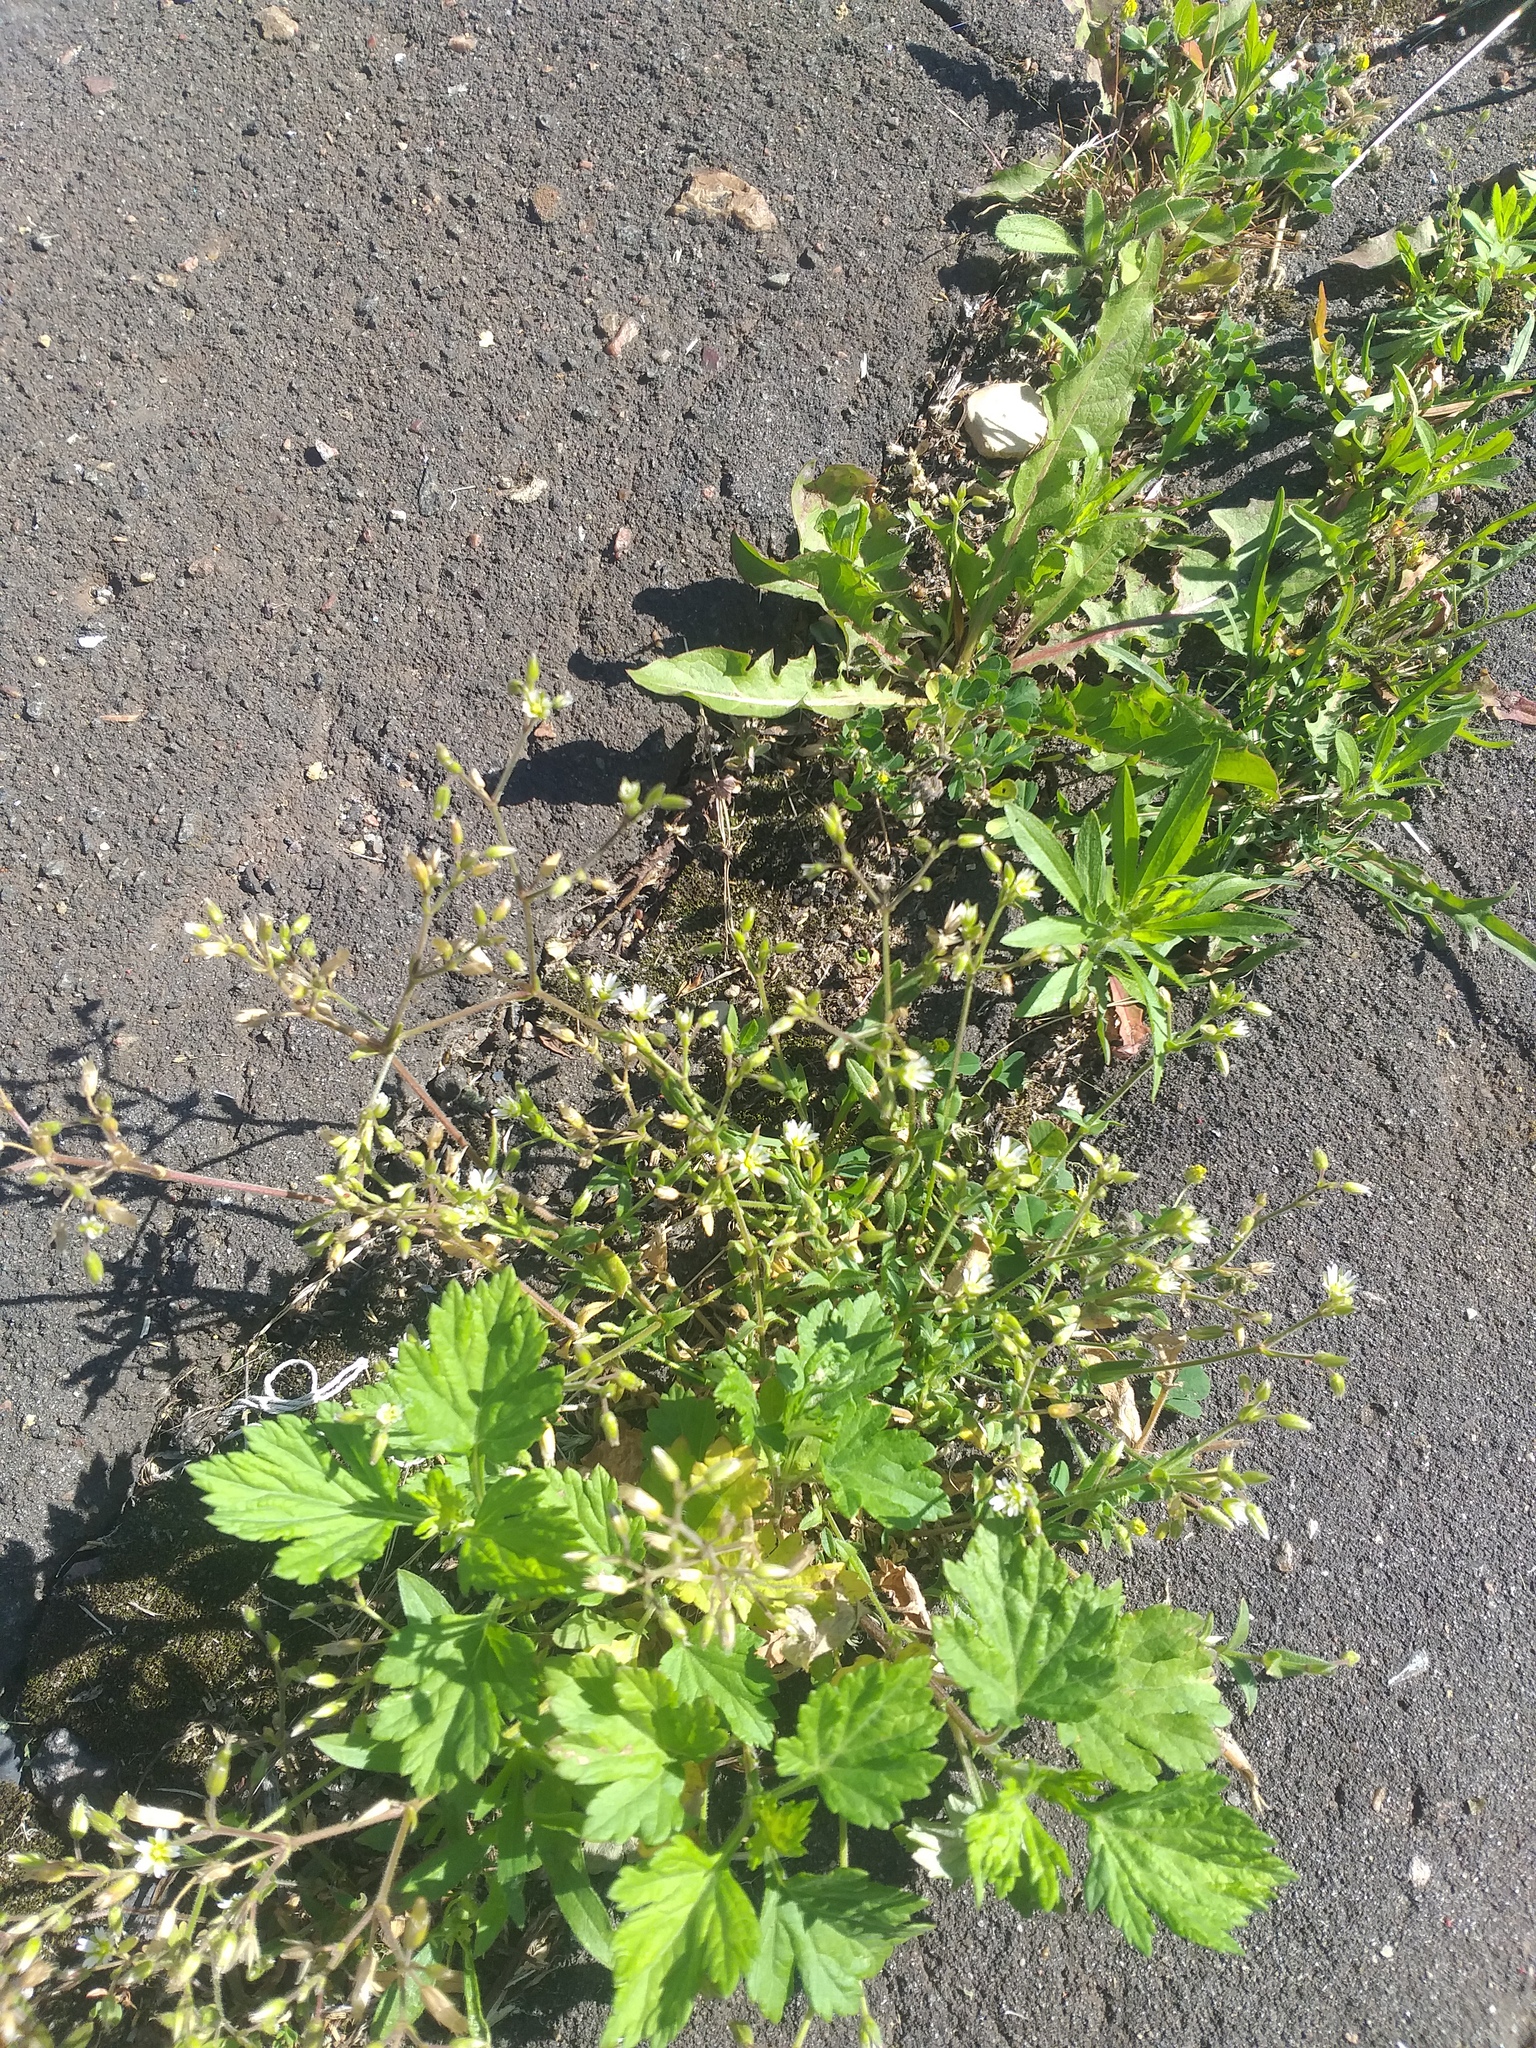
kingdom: Plantae
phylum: Tracheophyta
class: Magnoliopsida
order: Caryophyllales
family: Caryophyllaceae
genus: Cerastium
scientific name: Cerastium holosteoides
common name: Big chickweed
